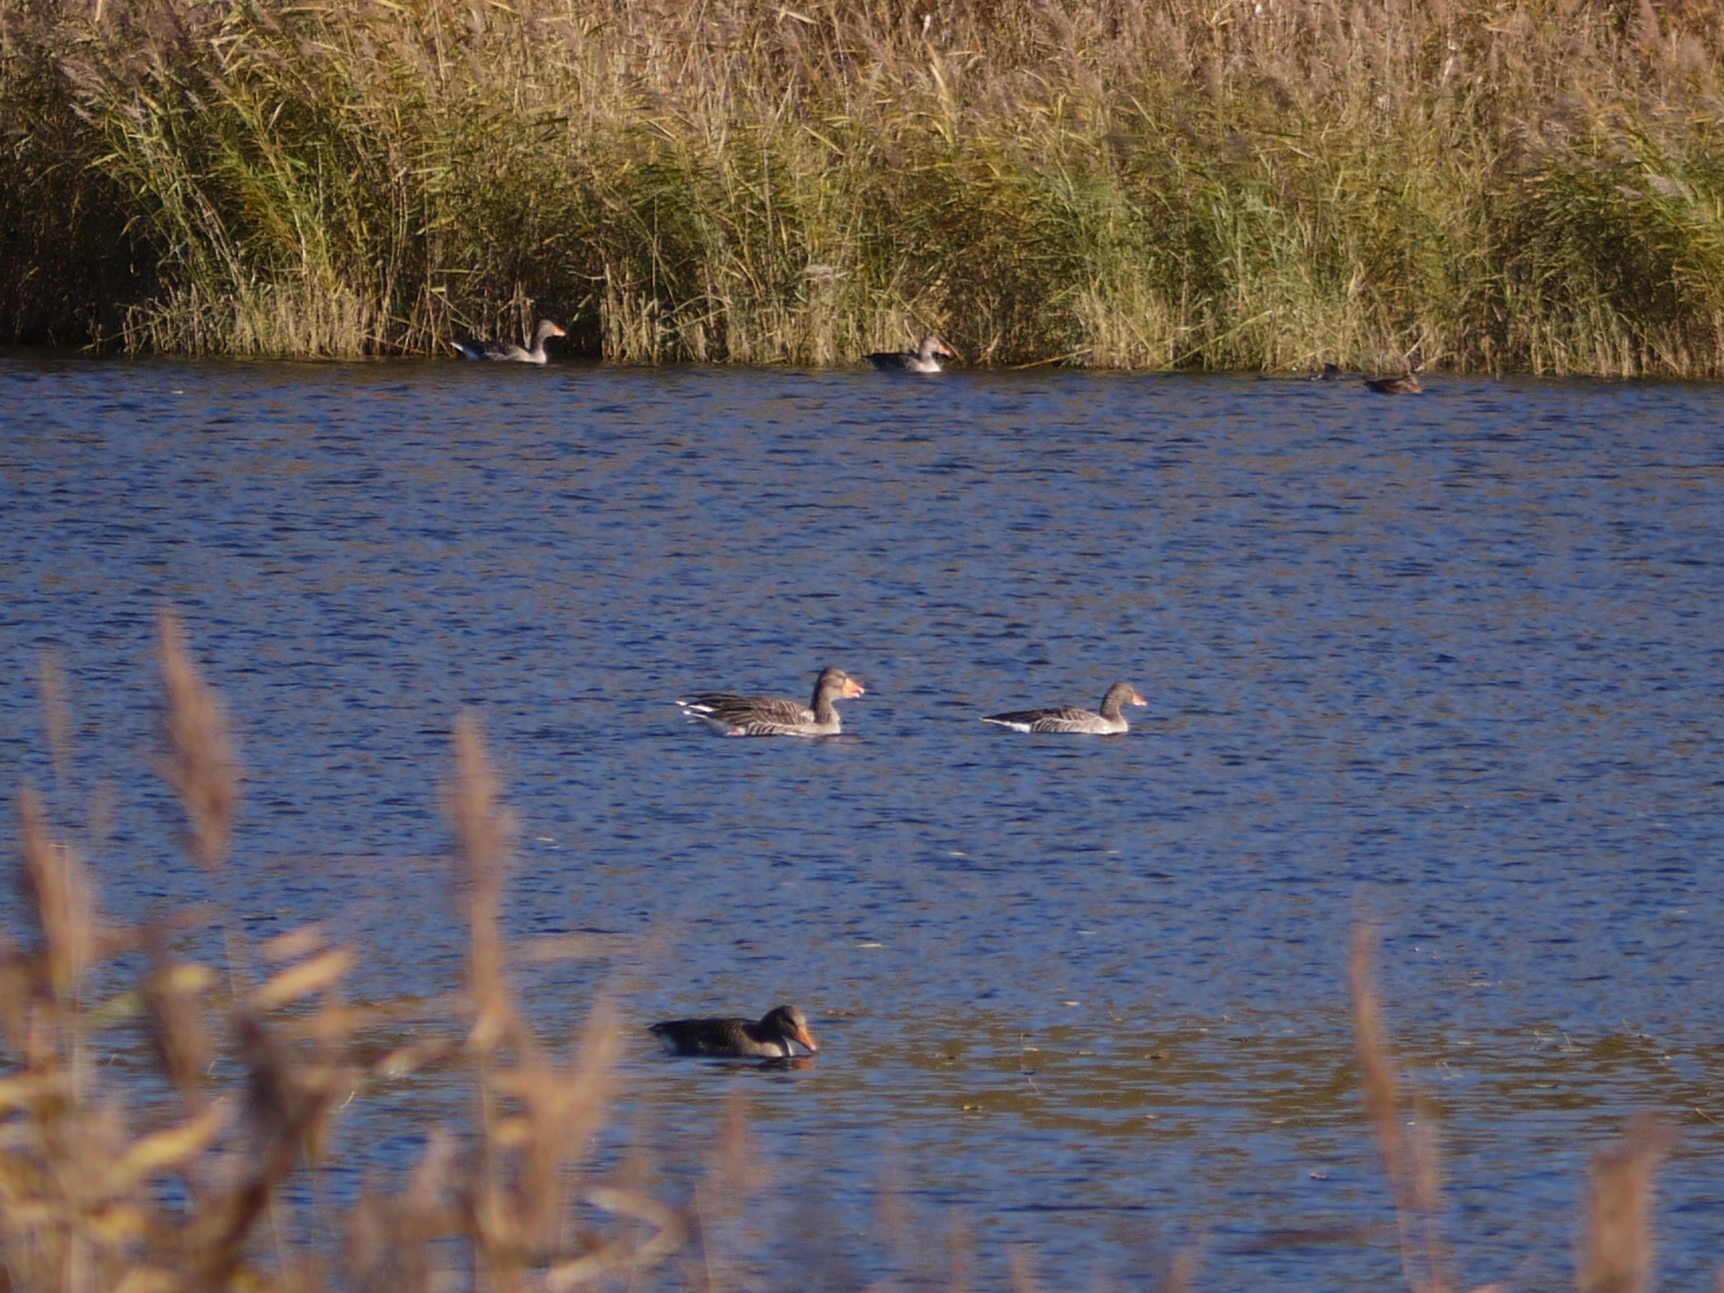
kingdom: Animalia
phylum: Chordata
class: Aves
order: Anseriformes
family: Anatidae
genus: Anser
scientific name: Anser anser
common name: Greylag goose
